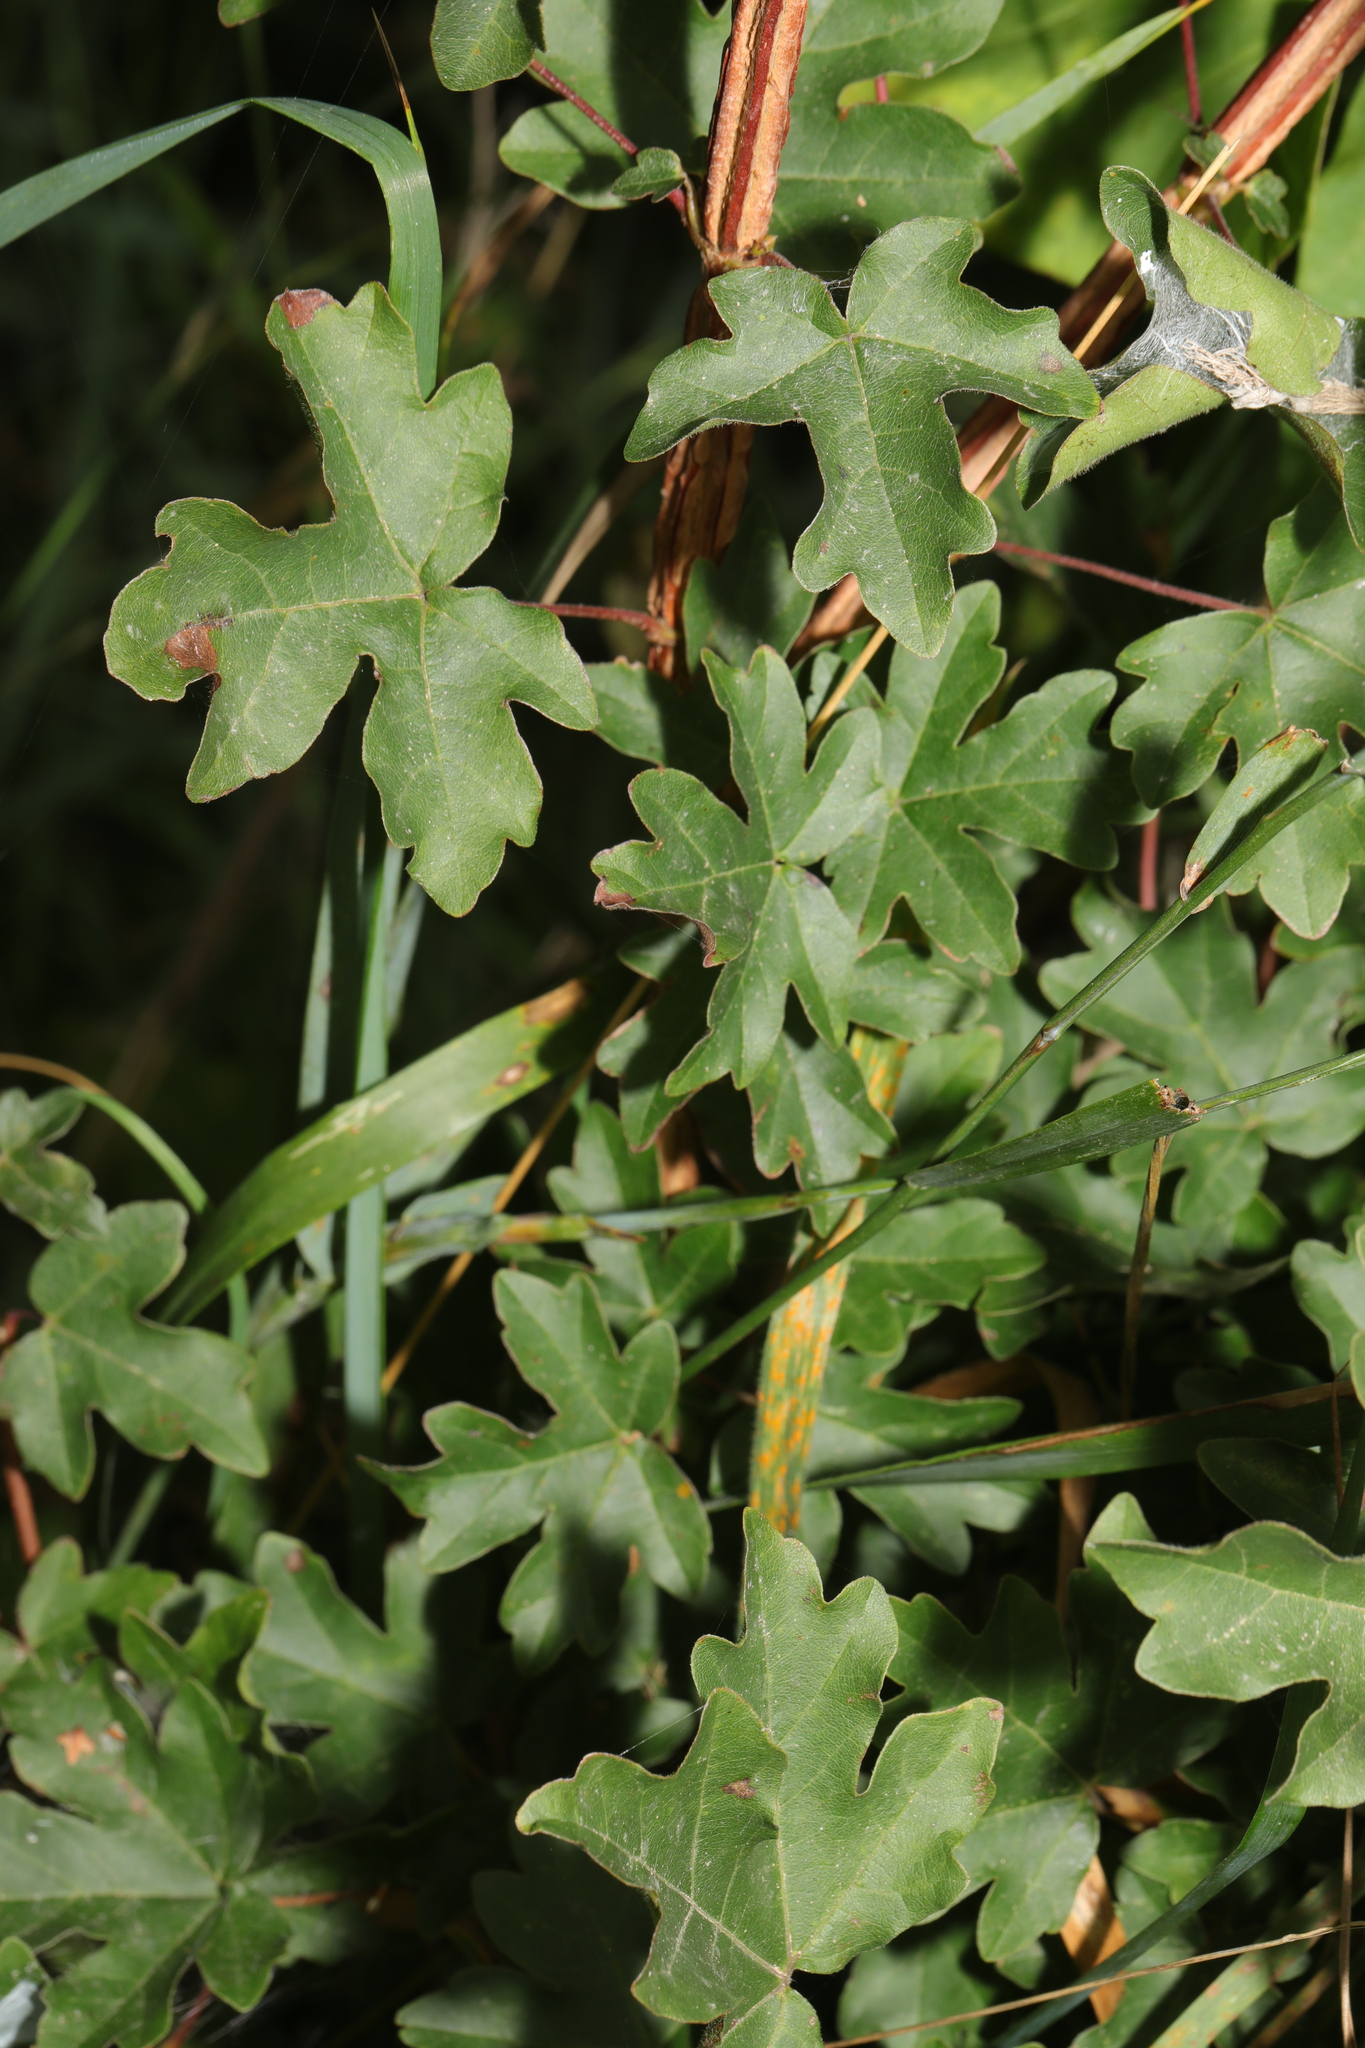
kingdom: Plantae
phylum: Tracheophyta
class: Magnoliopsida
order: Sapindales
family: Sapindaceae
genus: Acer
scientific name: Acer campestre
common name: Field maple
